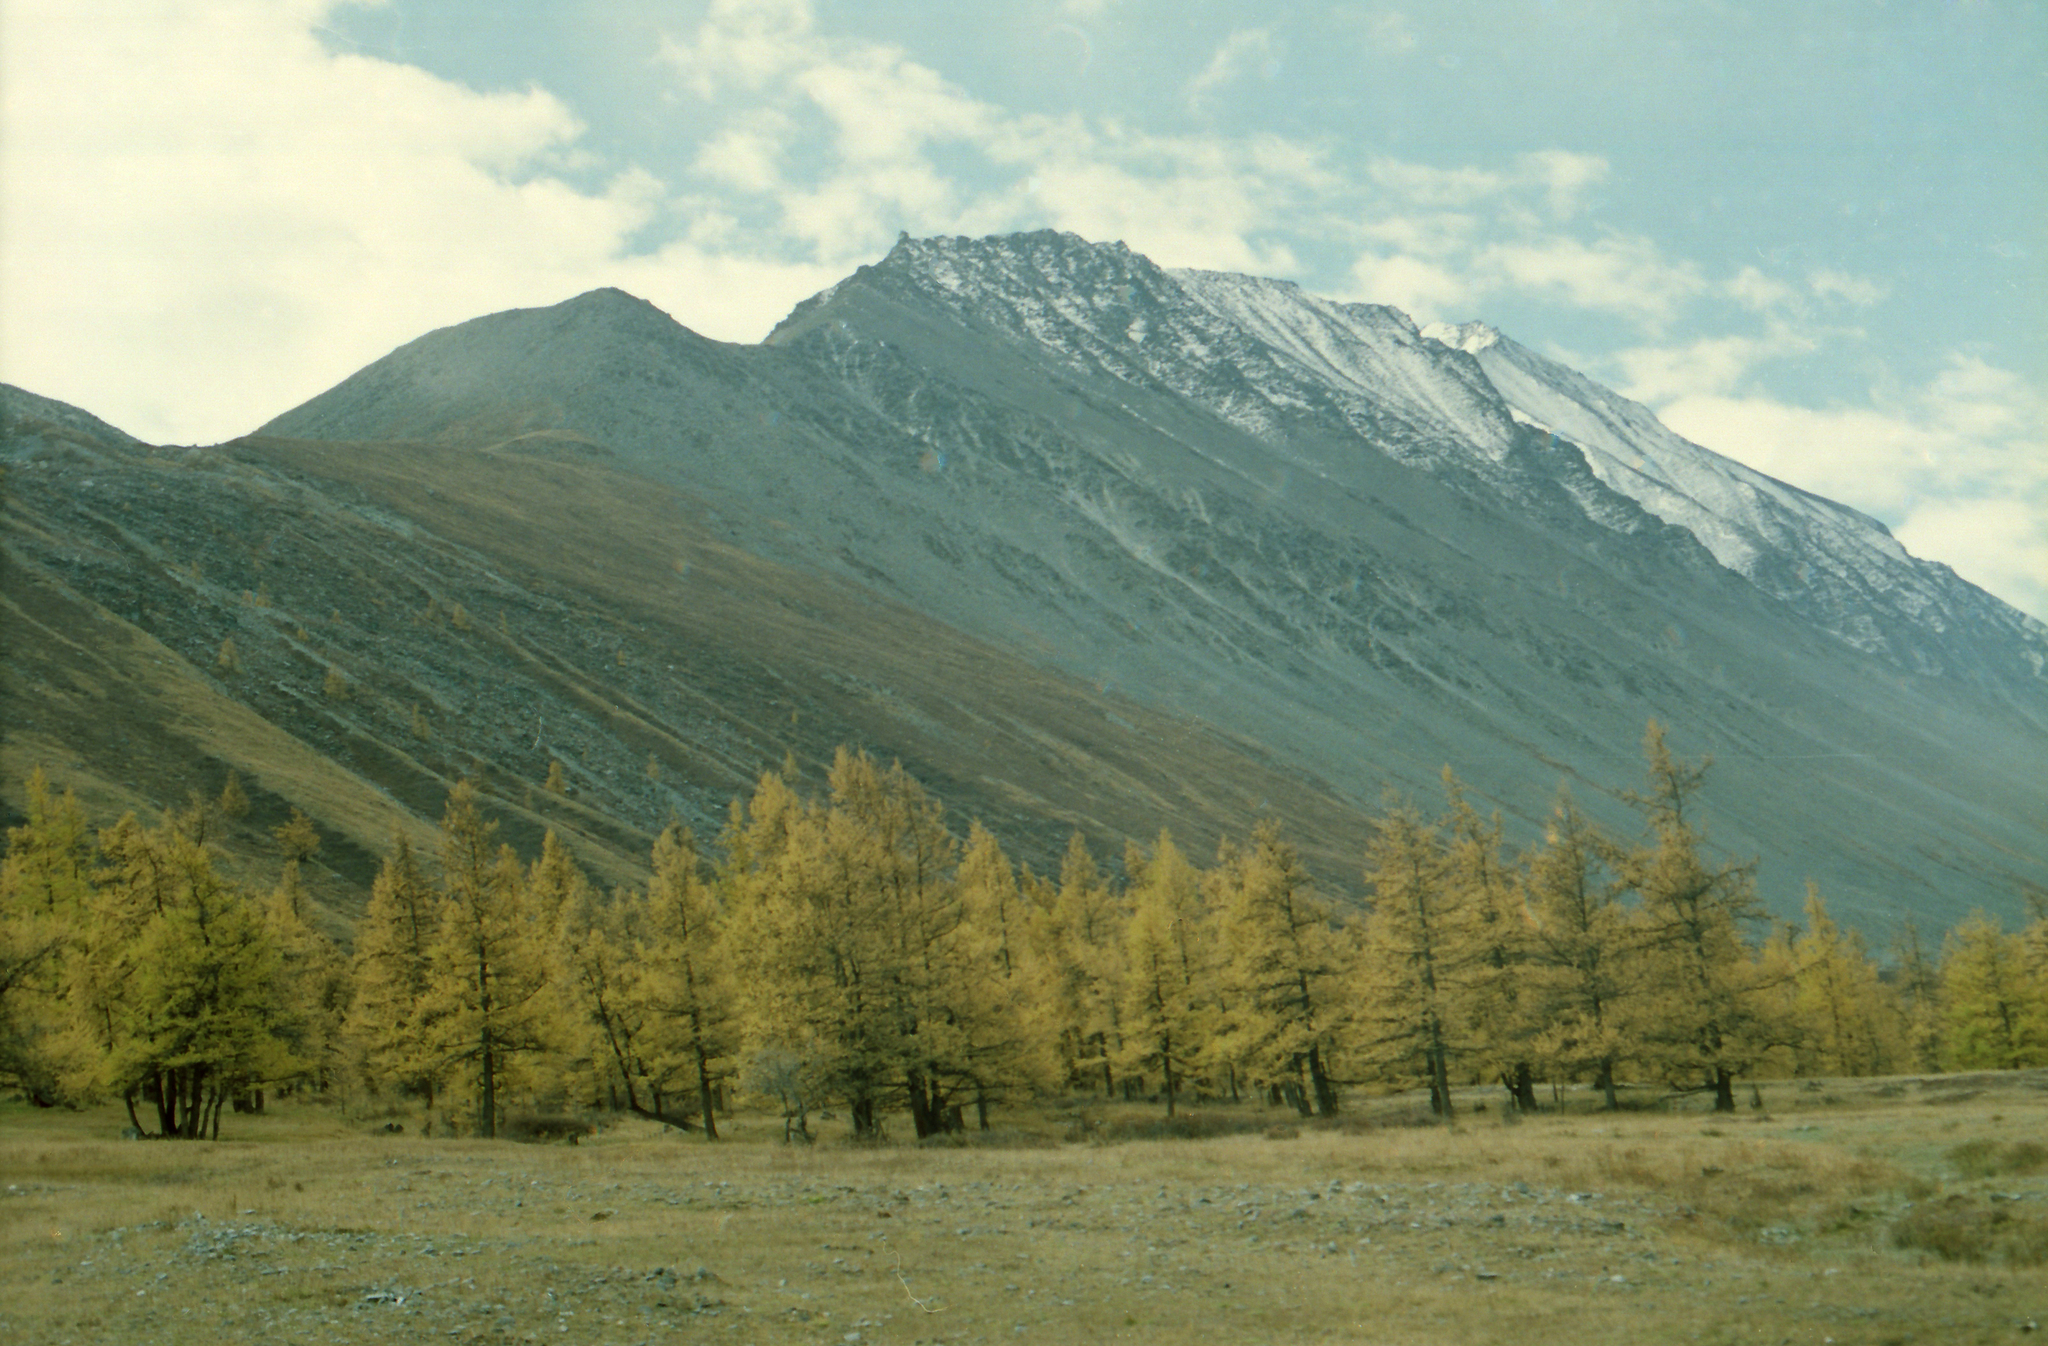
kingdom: Plantae
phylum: Tracheophyta
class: Pinopsida
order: Pinales
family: Pinaceae
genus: Larix
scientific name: Larix sibirica
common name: Siberian larch
